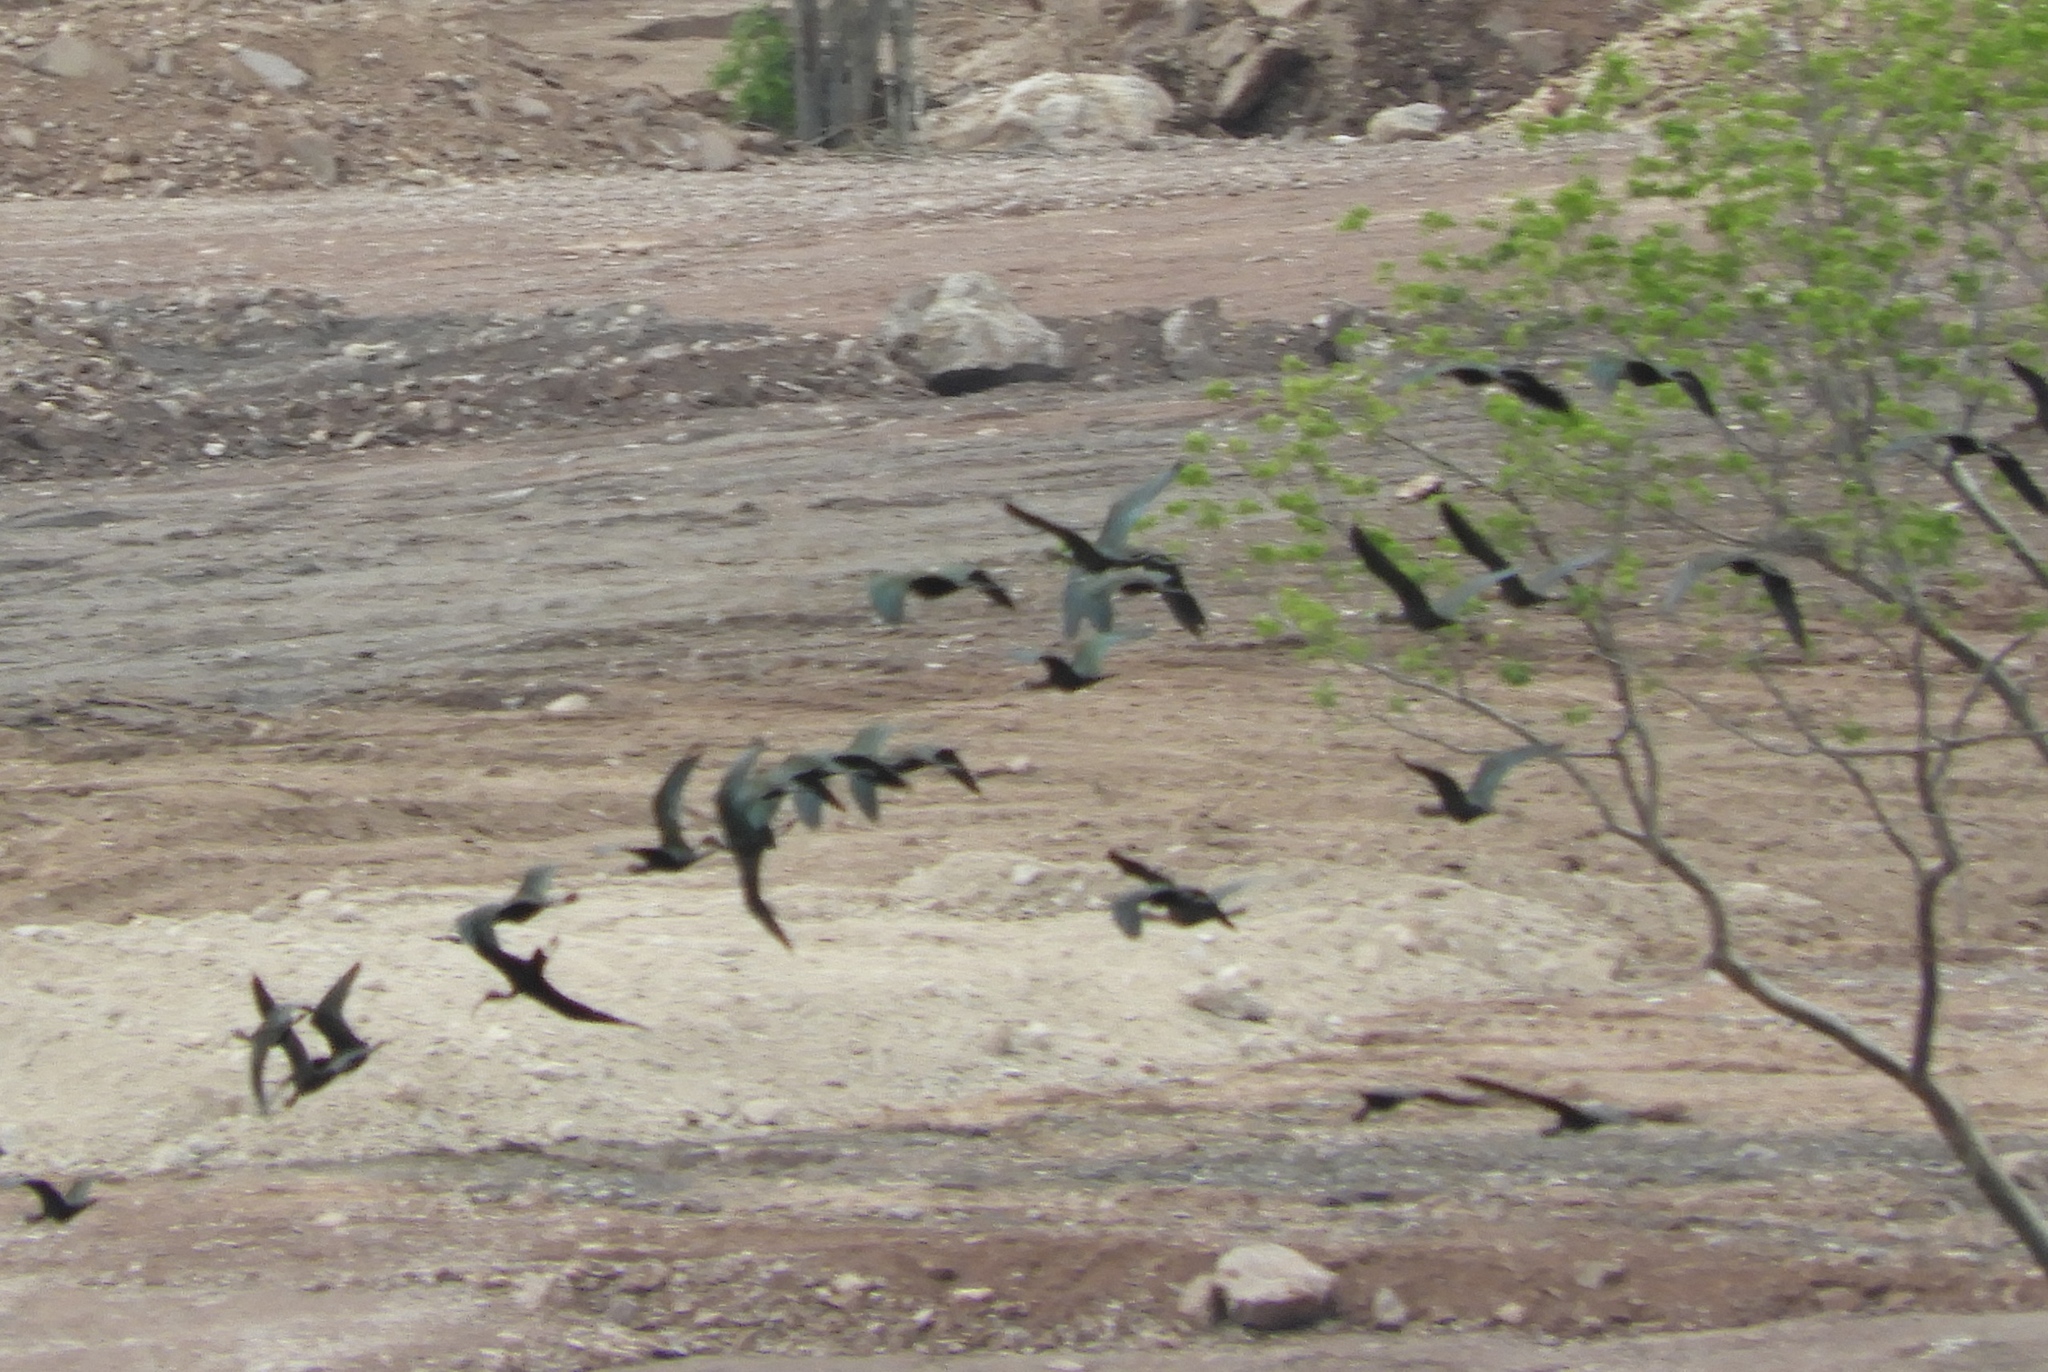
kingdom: Animalia
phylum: Chordata
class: Aves
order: Pelecaniformes
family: Threskiornithidae
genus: Plegadis
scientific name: Plegadis chihi
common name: White-faced ibis
